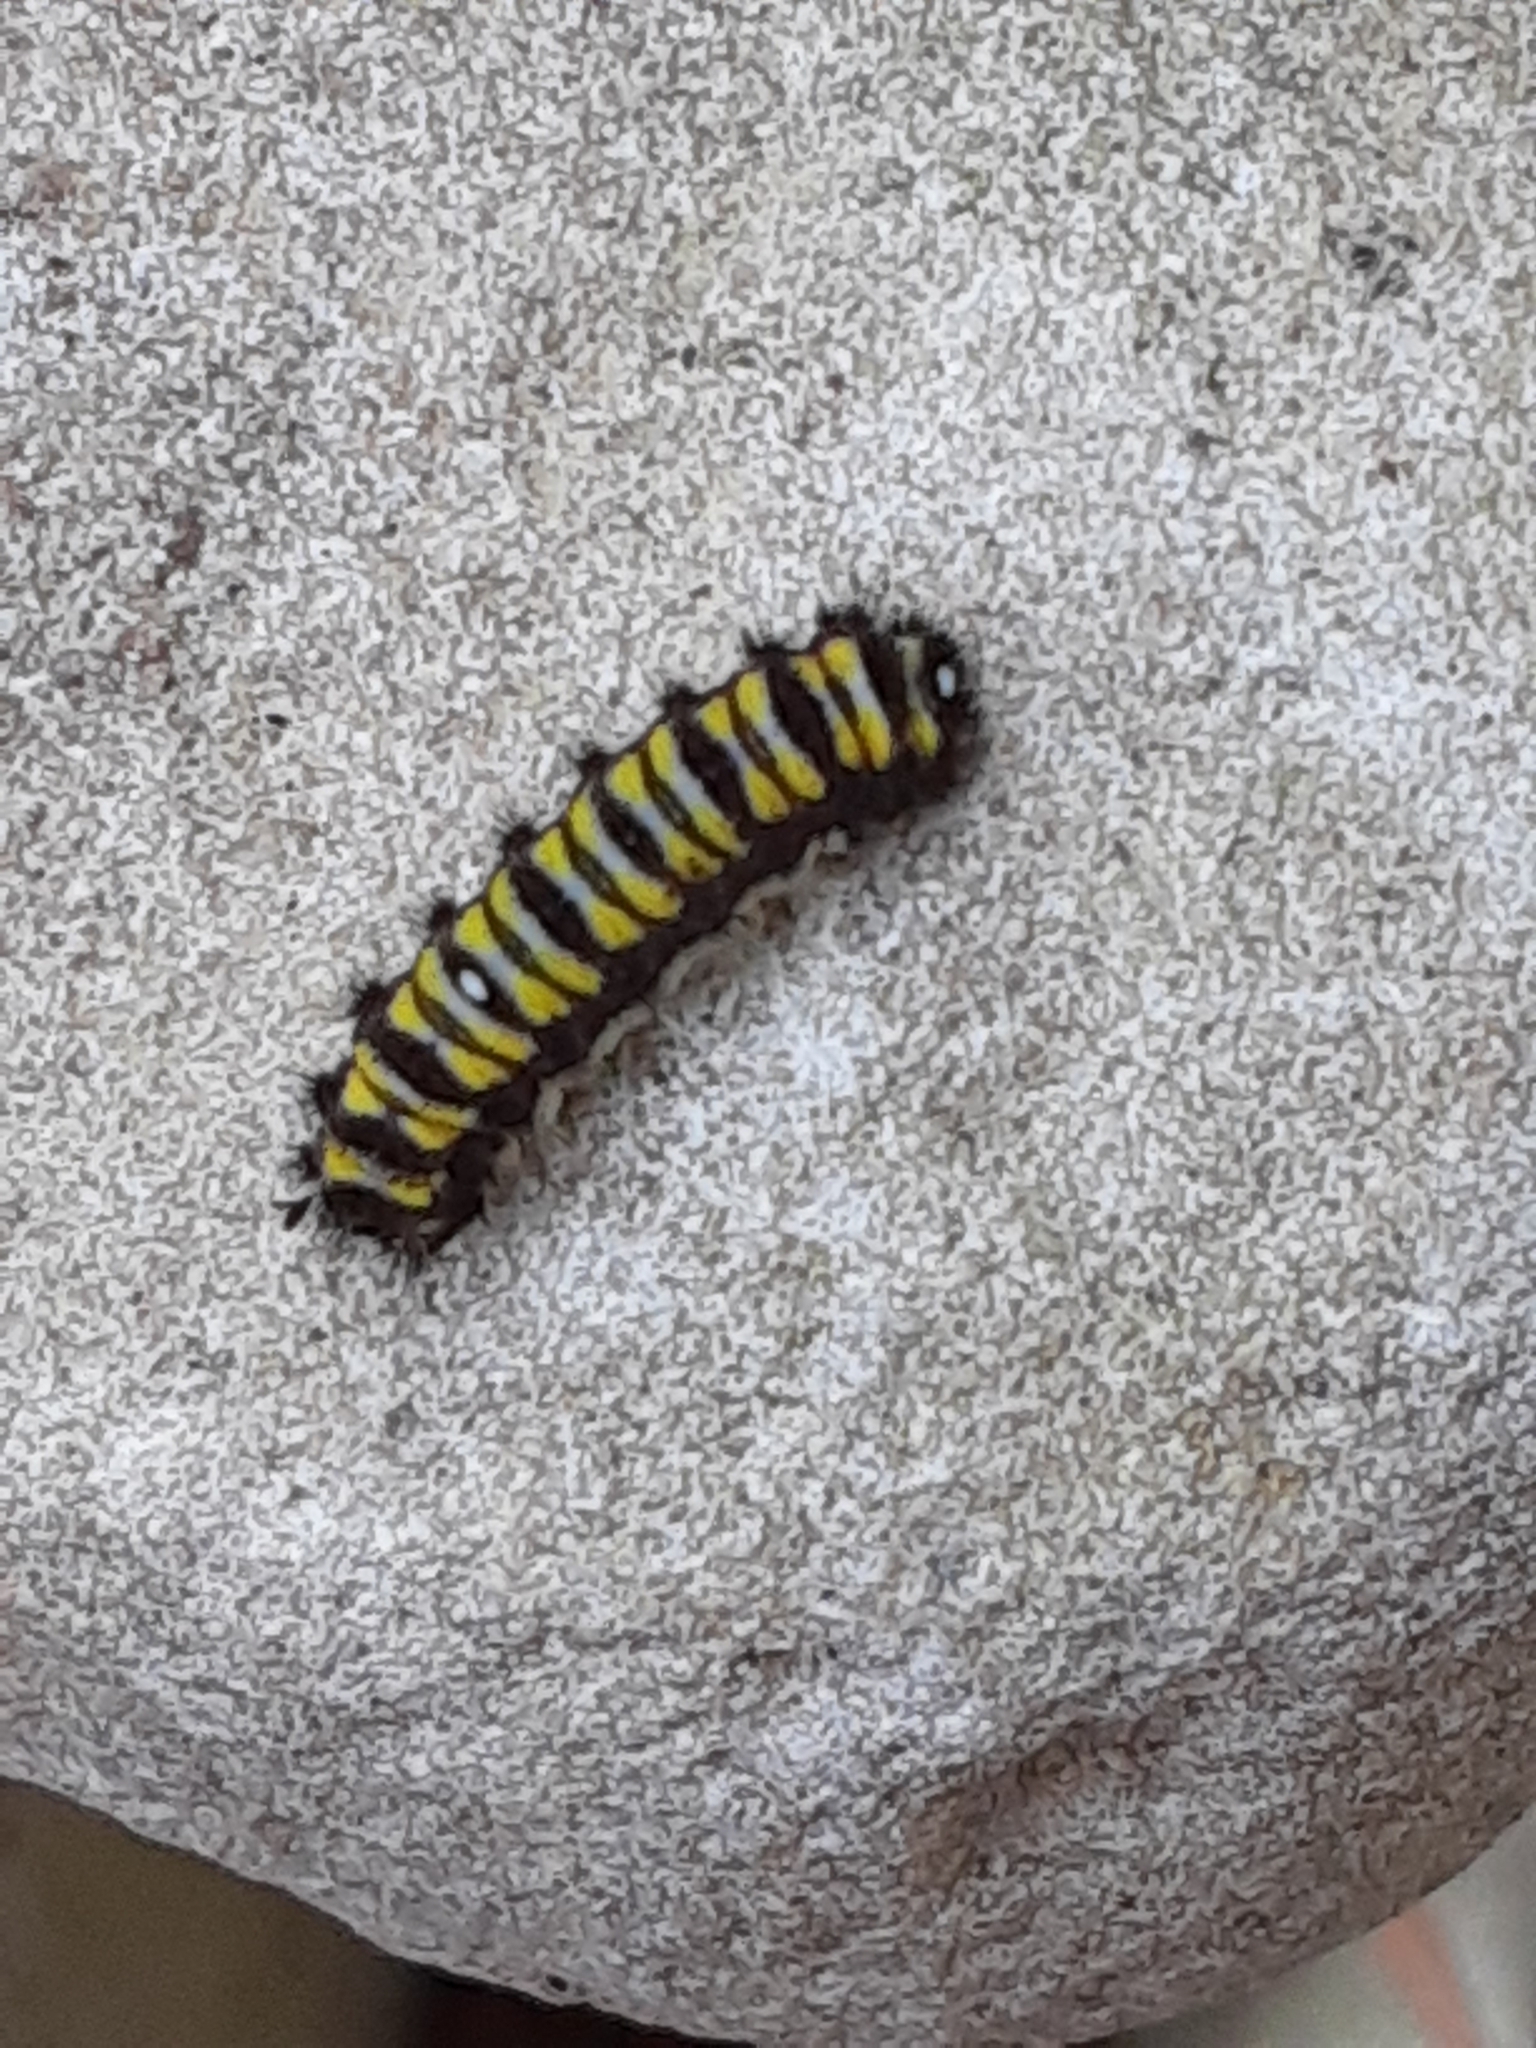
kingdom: Animalia
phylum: Arthropoda
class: Insecta
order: Lepidoptera
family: Zygaenidae
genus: Harrisina
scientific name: Harrisina americana
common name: Grapeleaf skeletonizer moth
